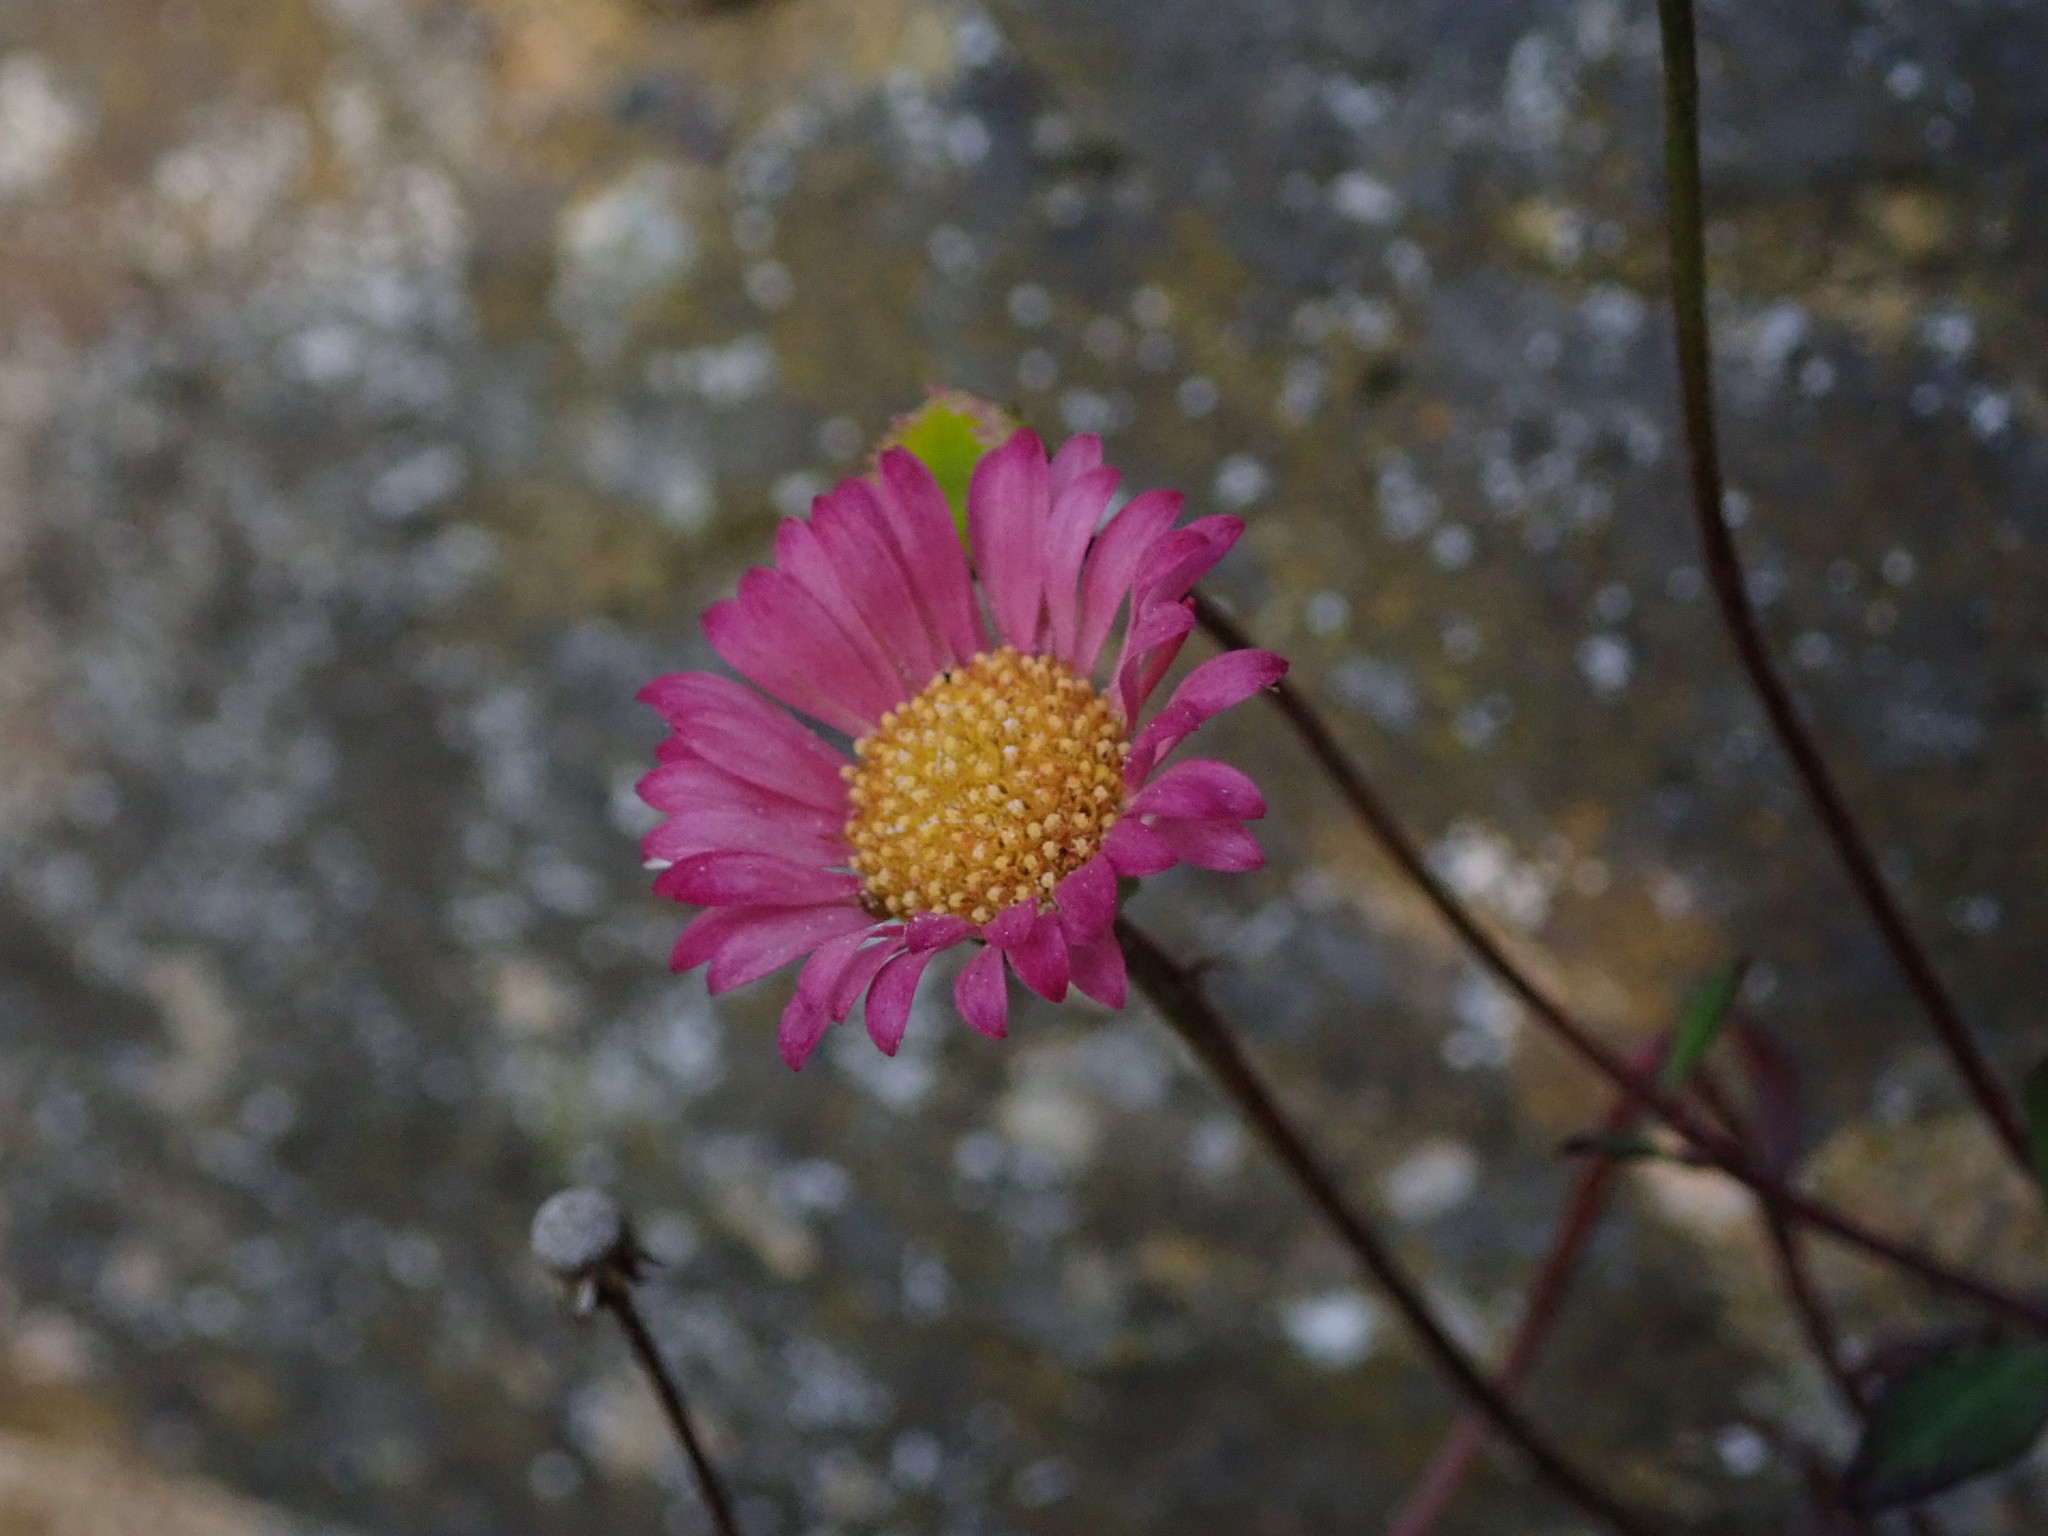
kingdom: Plantae
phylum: Tracheophyta
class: Magnoliopsida
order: Asterales
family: Asteraceae
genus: Erigeron
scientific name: Erigeron karvinskianus
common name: Mexican fleabane
